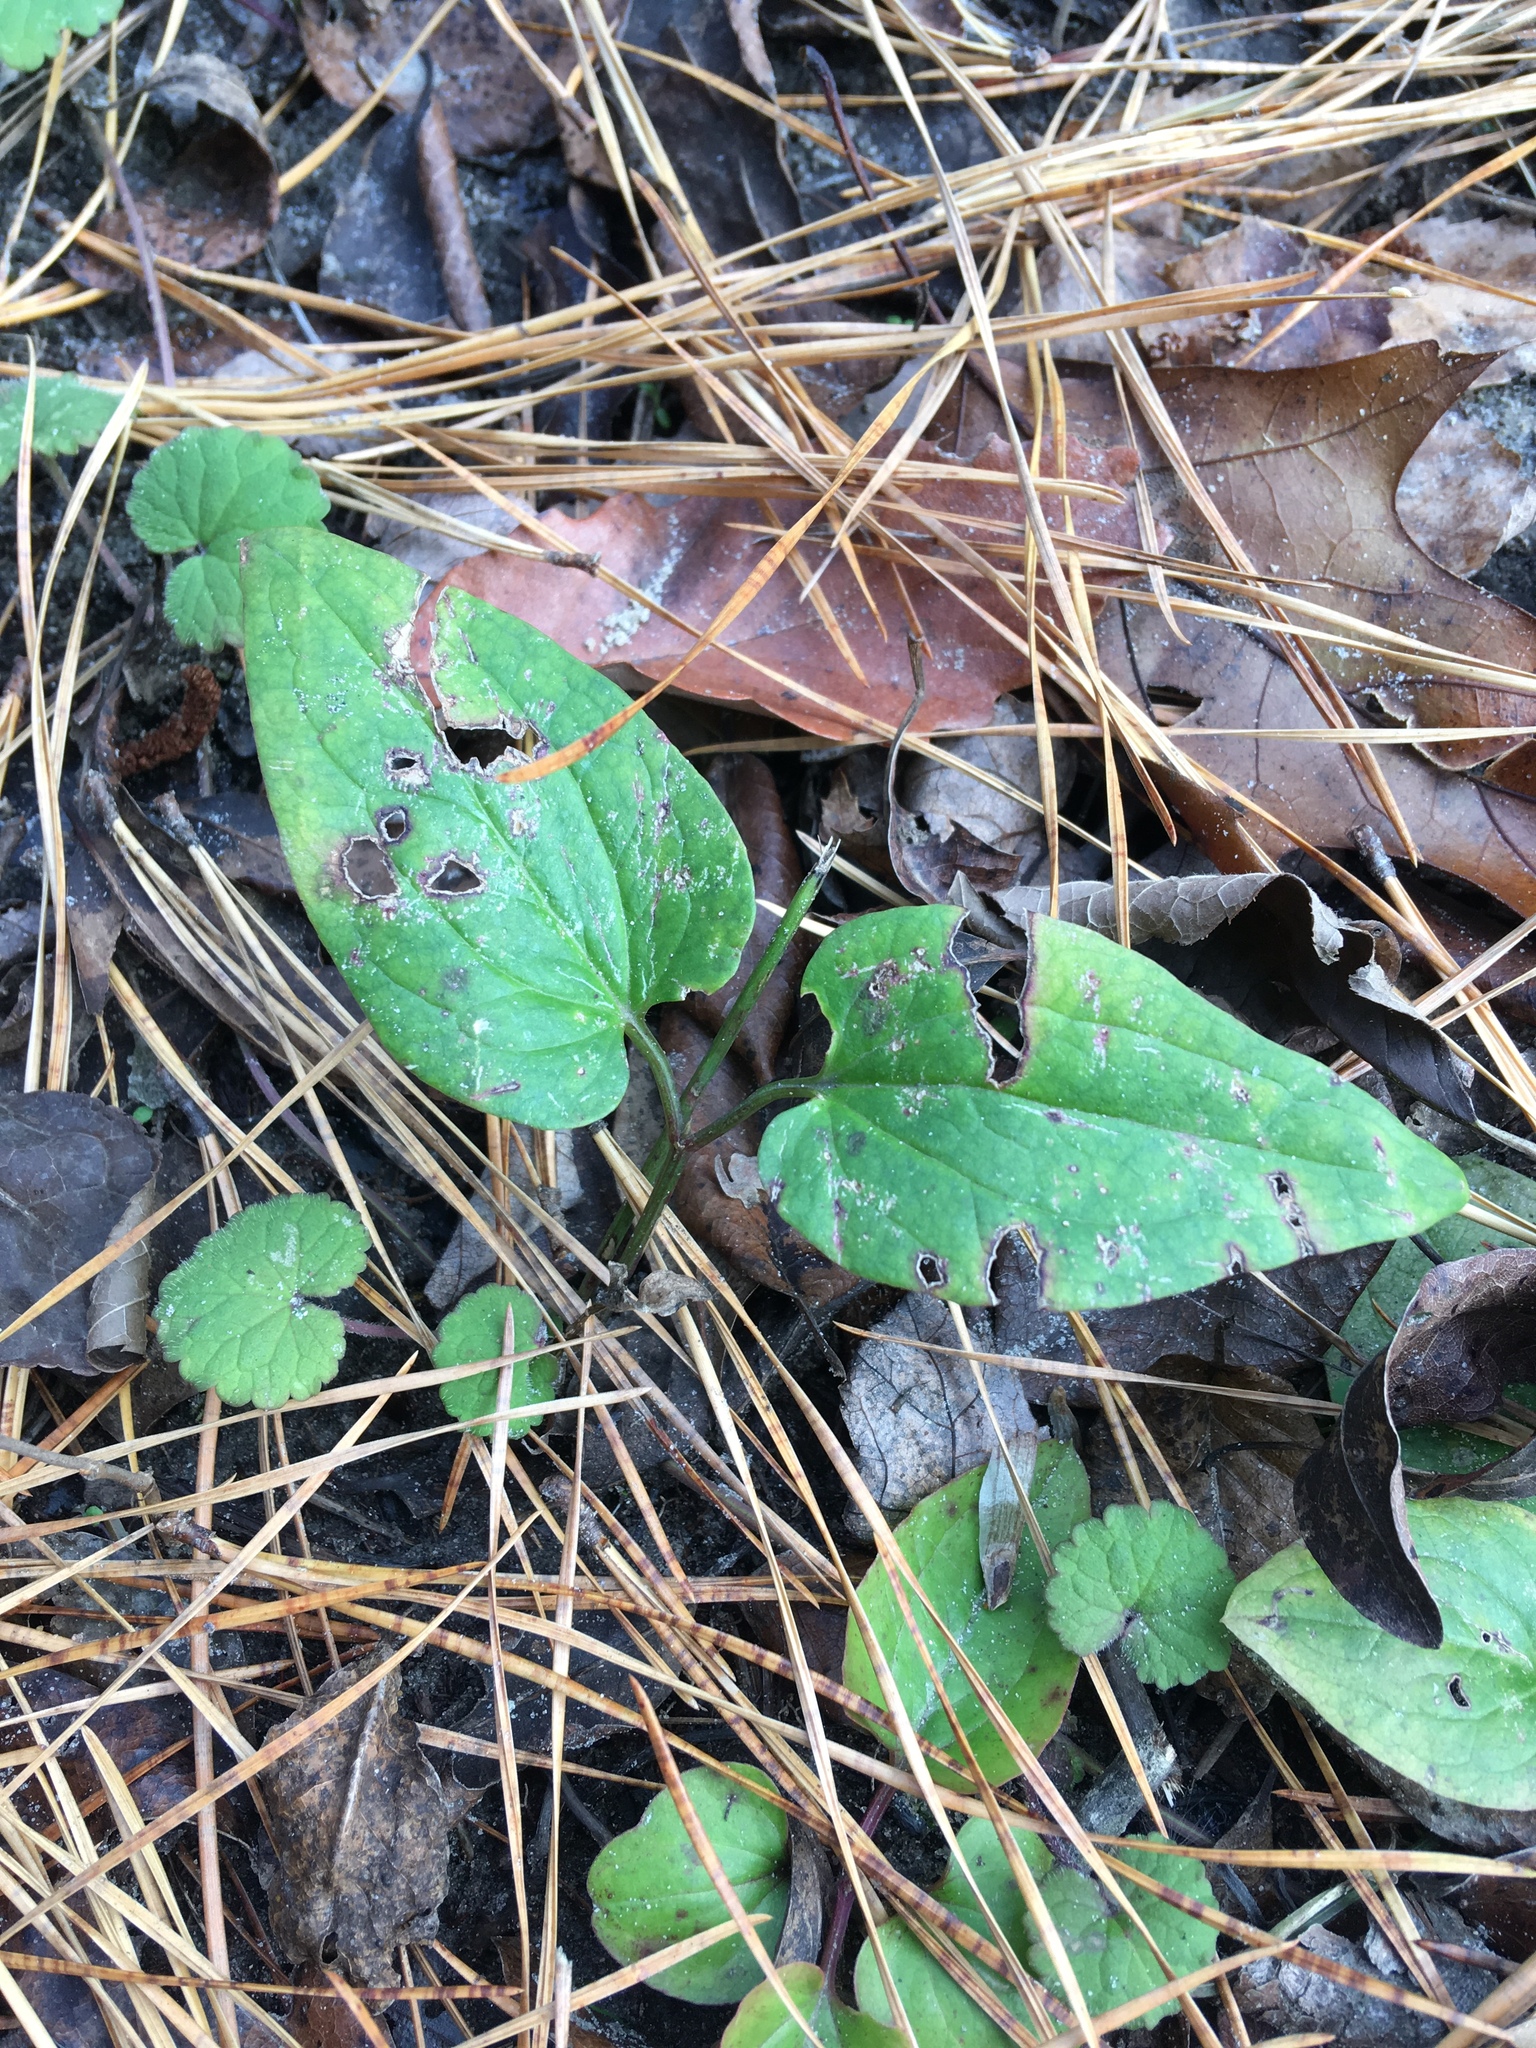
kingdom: Plantae
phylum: Tracheophyta
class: Magnoliopsida
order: Ranunculales
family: Ranunculaceae
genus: Clematis
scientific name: Clematis terniflora
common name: Sweet autumn clematis
